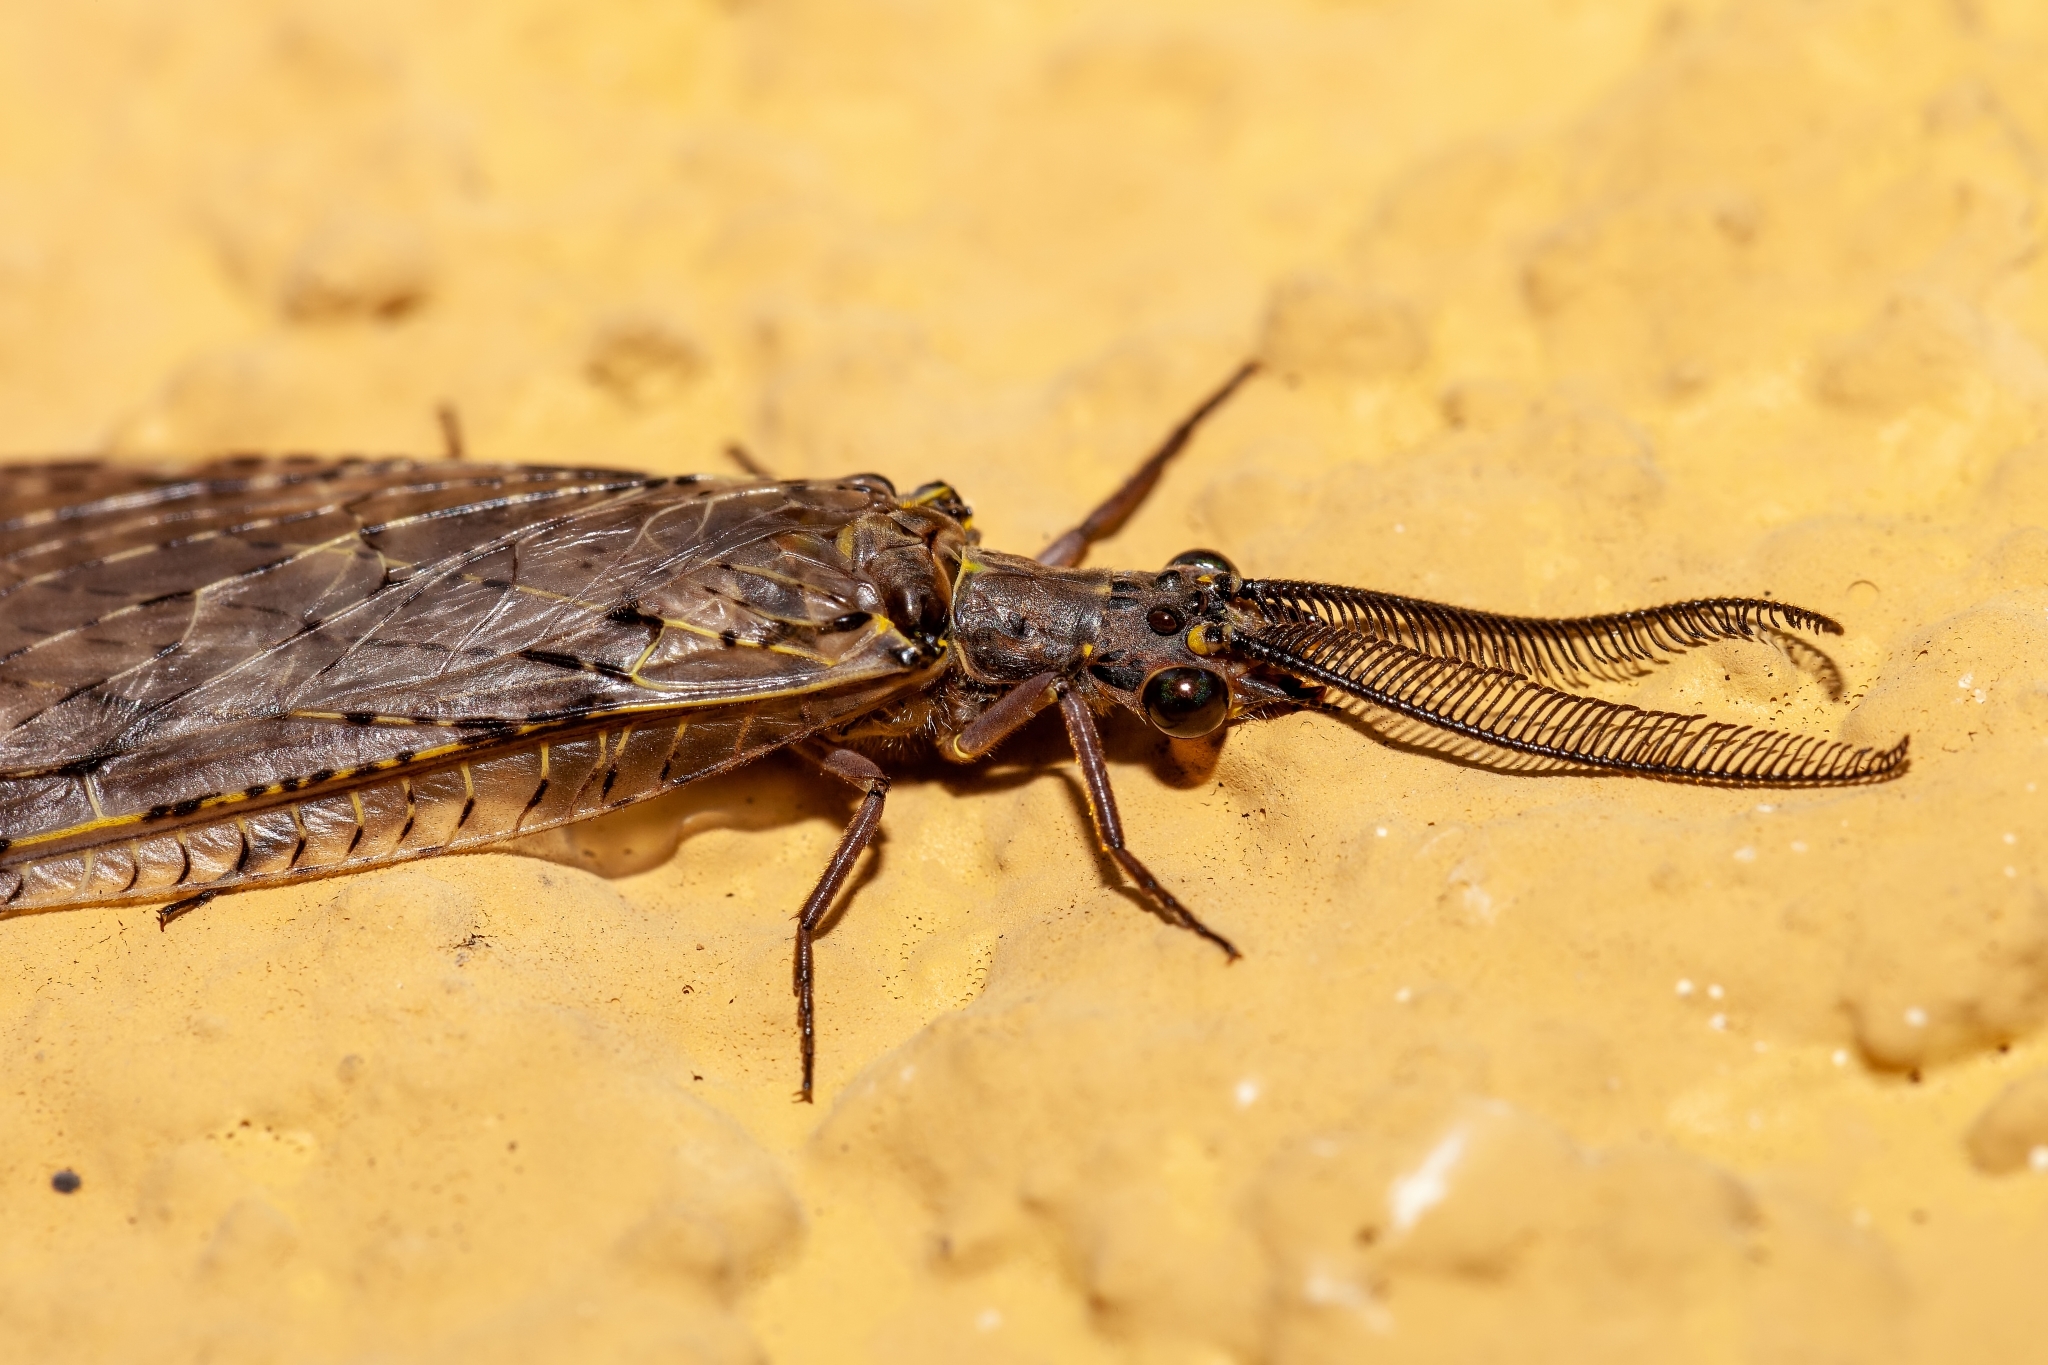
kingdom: Animalia
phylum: Arthropoda
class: Insecta
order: Megaloptera
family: Corydalidae
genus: Chauliodes
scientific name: Chauliodes rastricornis
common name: Spring fishfly
